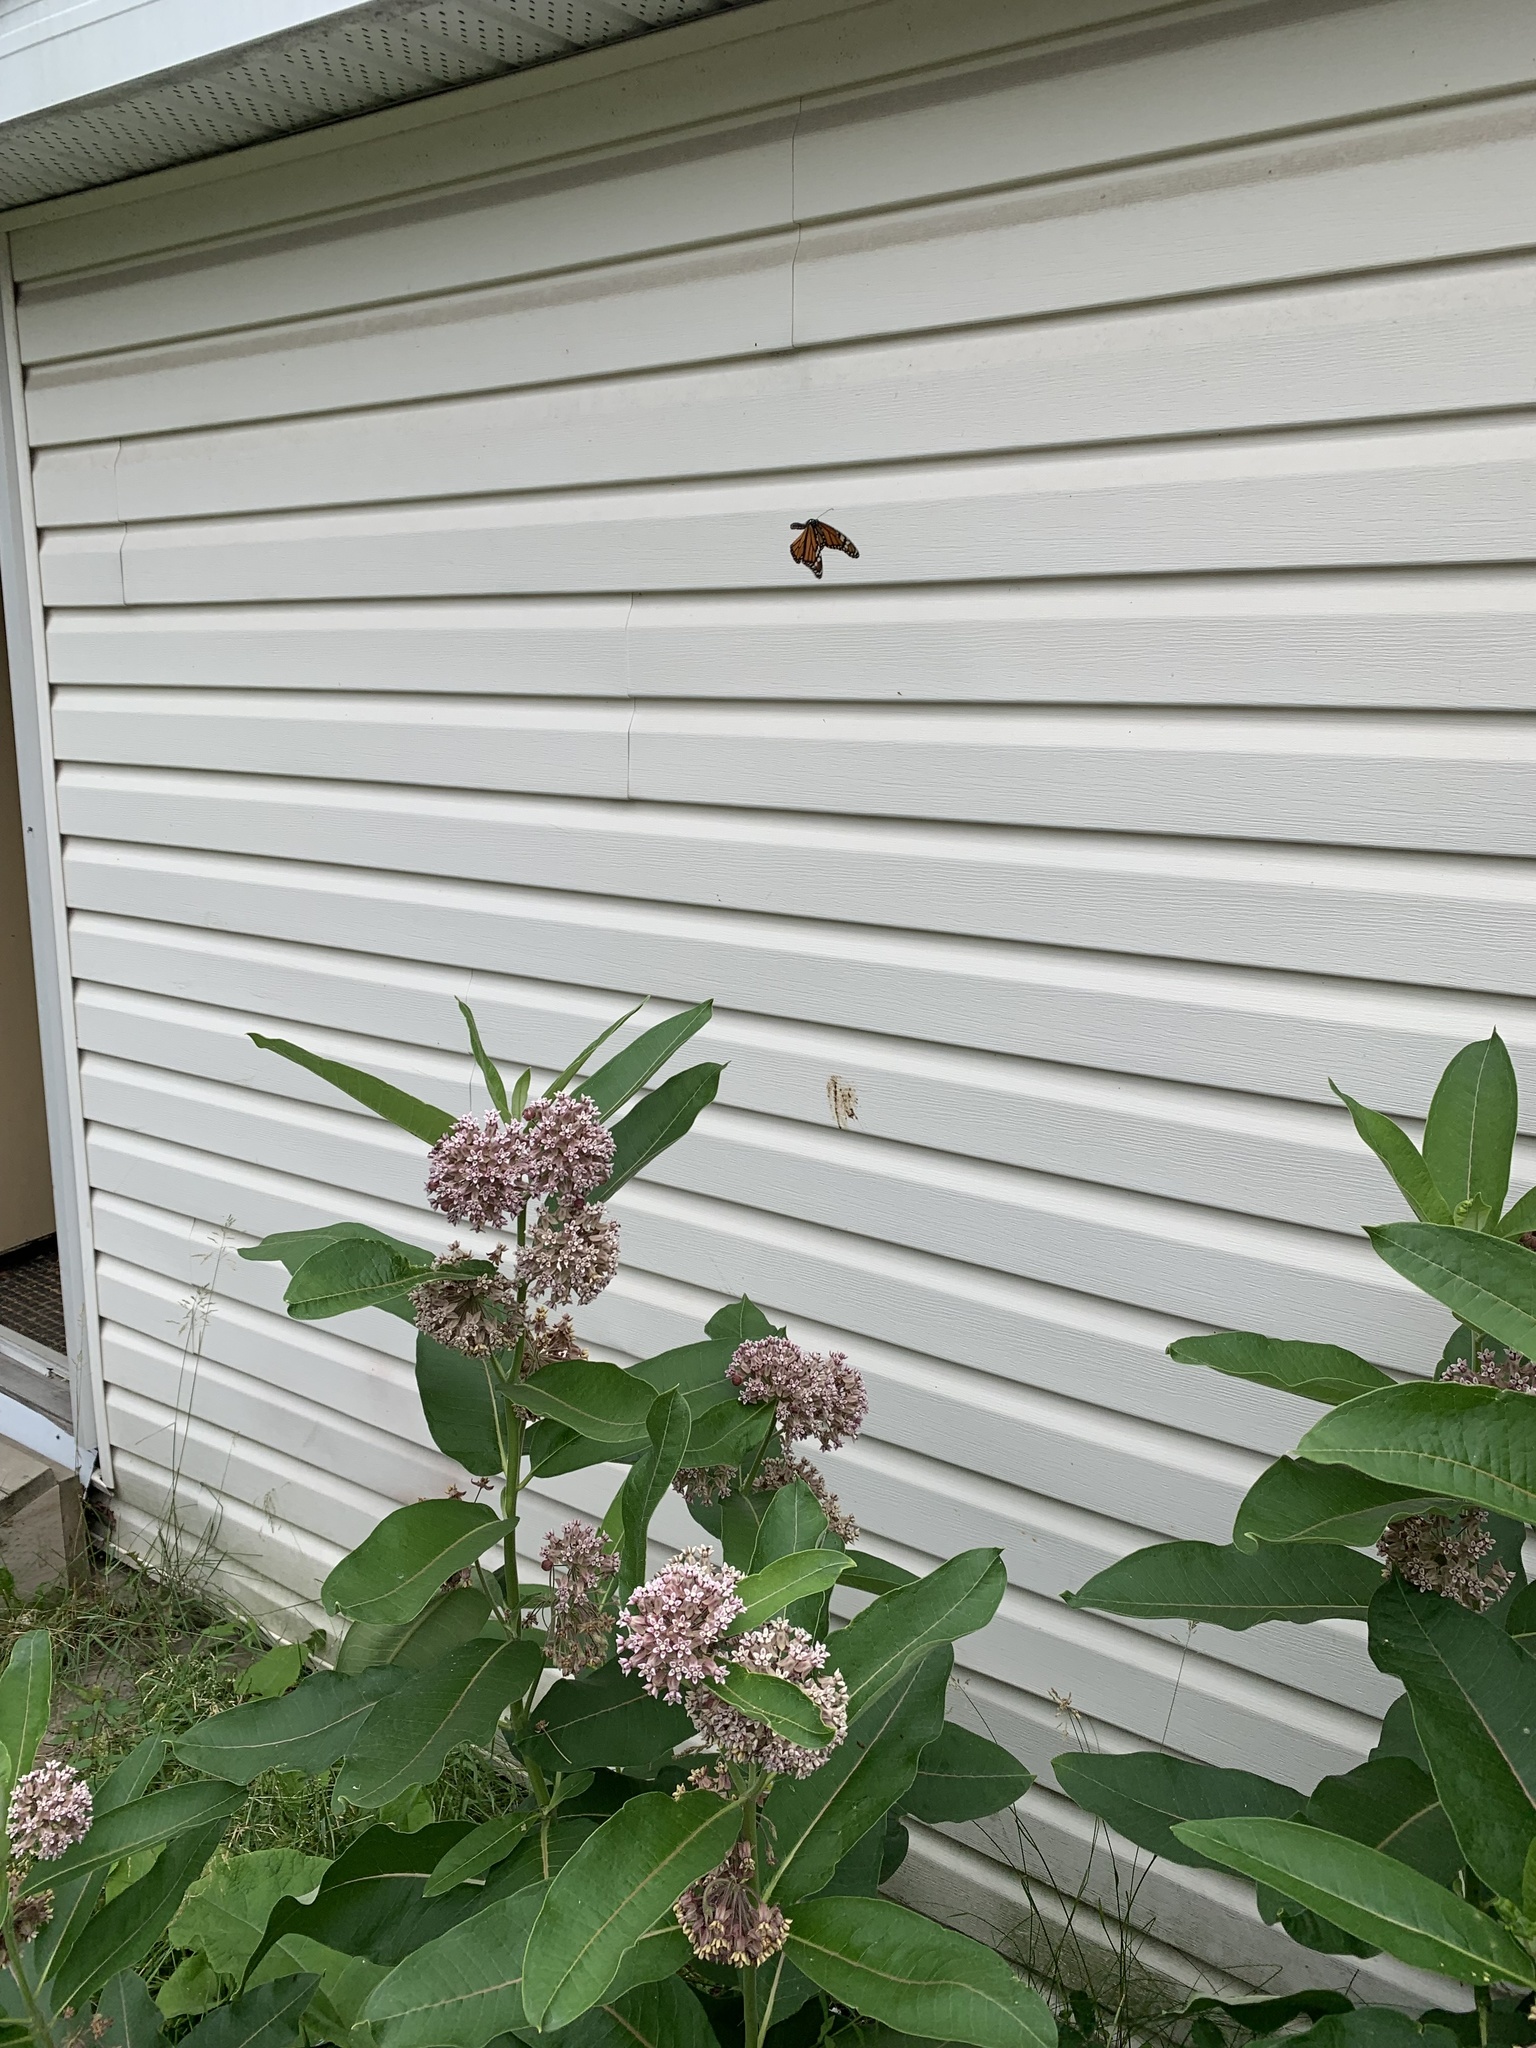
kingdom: Animalia
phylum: Arthropoda
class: Insecta
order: Lepidoptera
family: Nymphalidae
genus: Danaus
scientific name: Danaus plexippus
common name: Monarch
